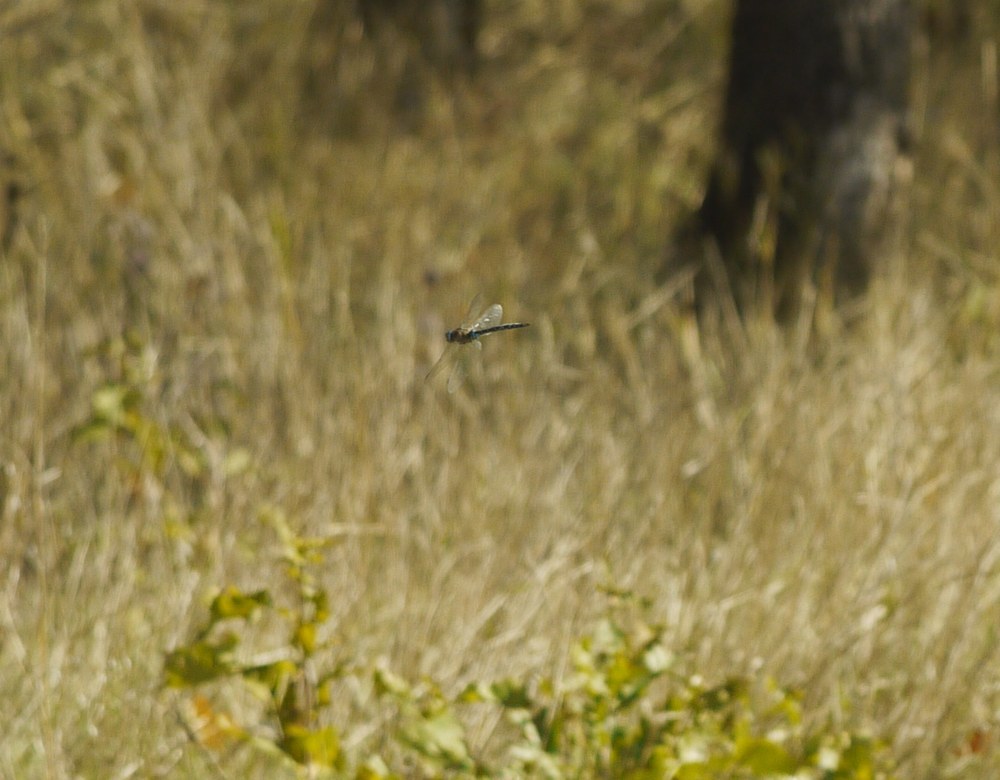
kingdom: Animalia
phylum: Arthropoda
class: Insecta
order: Odonata
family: Aeshnidae
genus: Aeshna
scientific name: Aeshna mixta
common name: Migrant hawker
